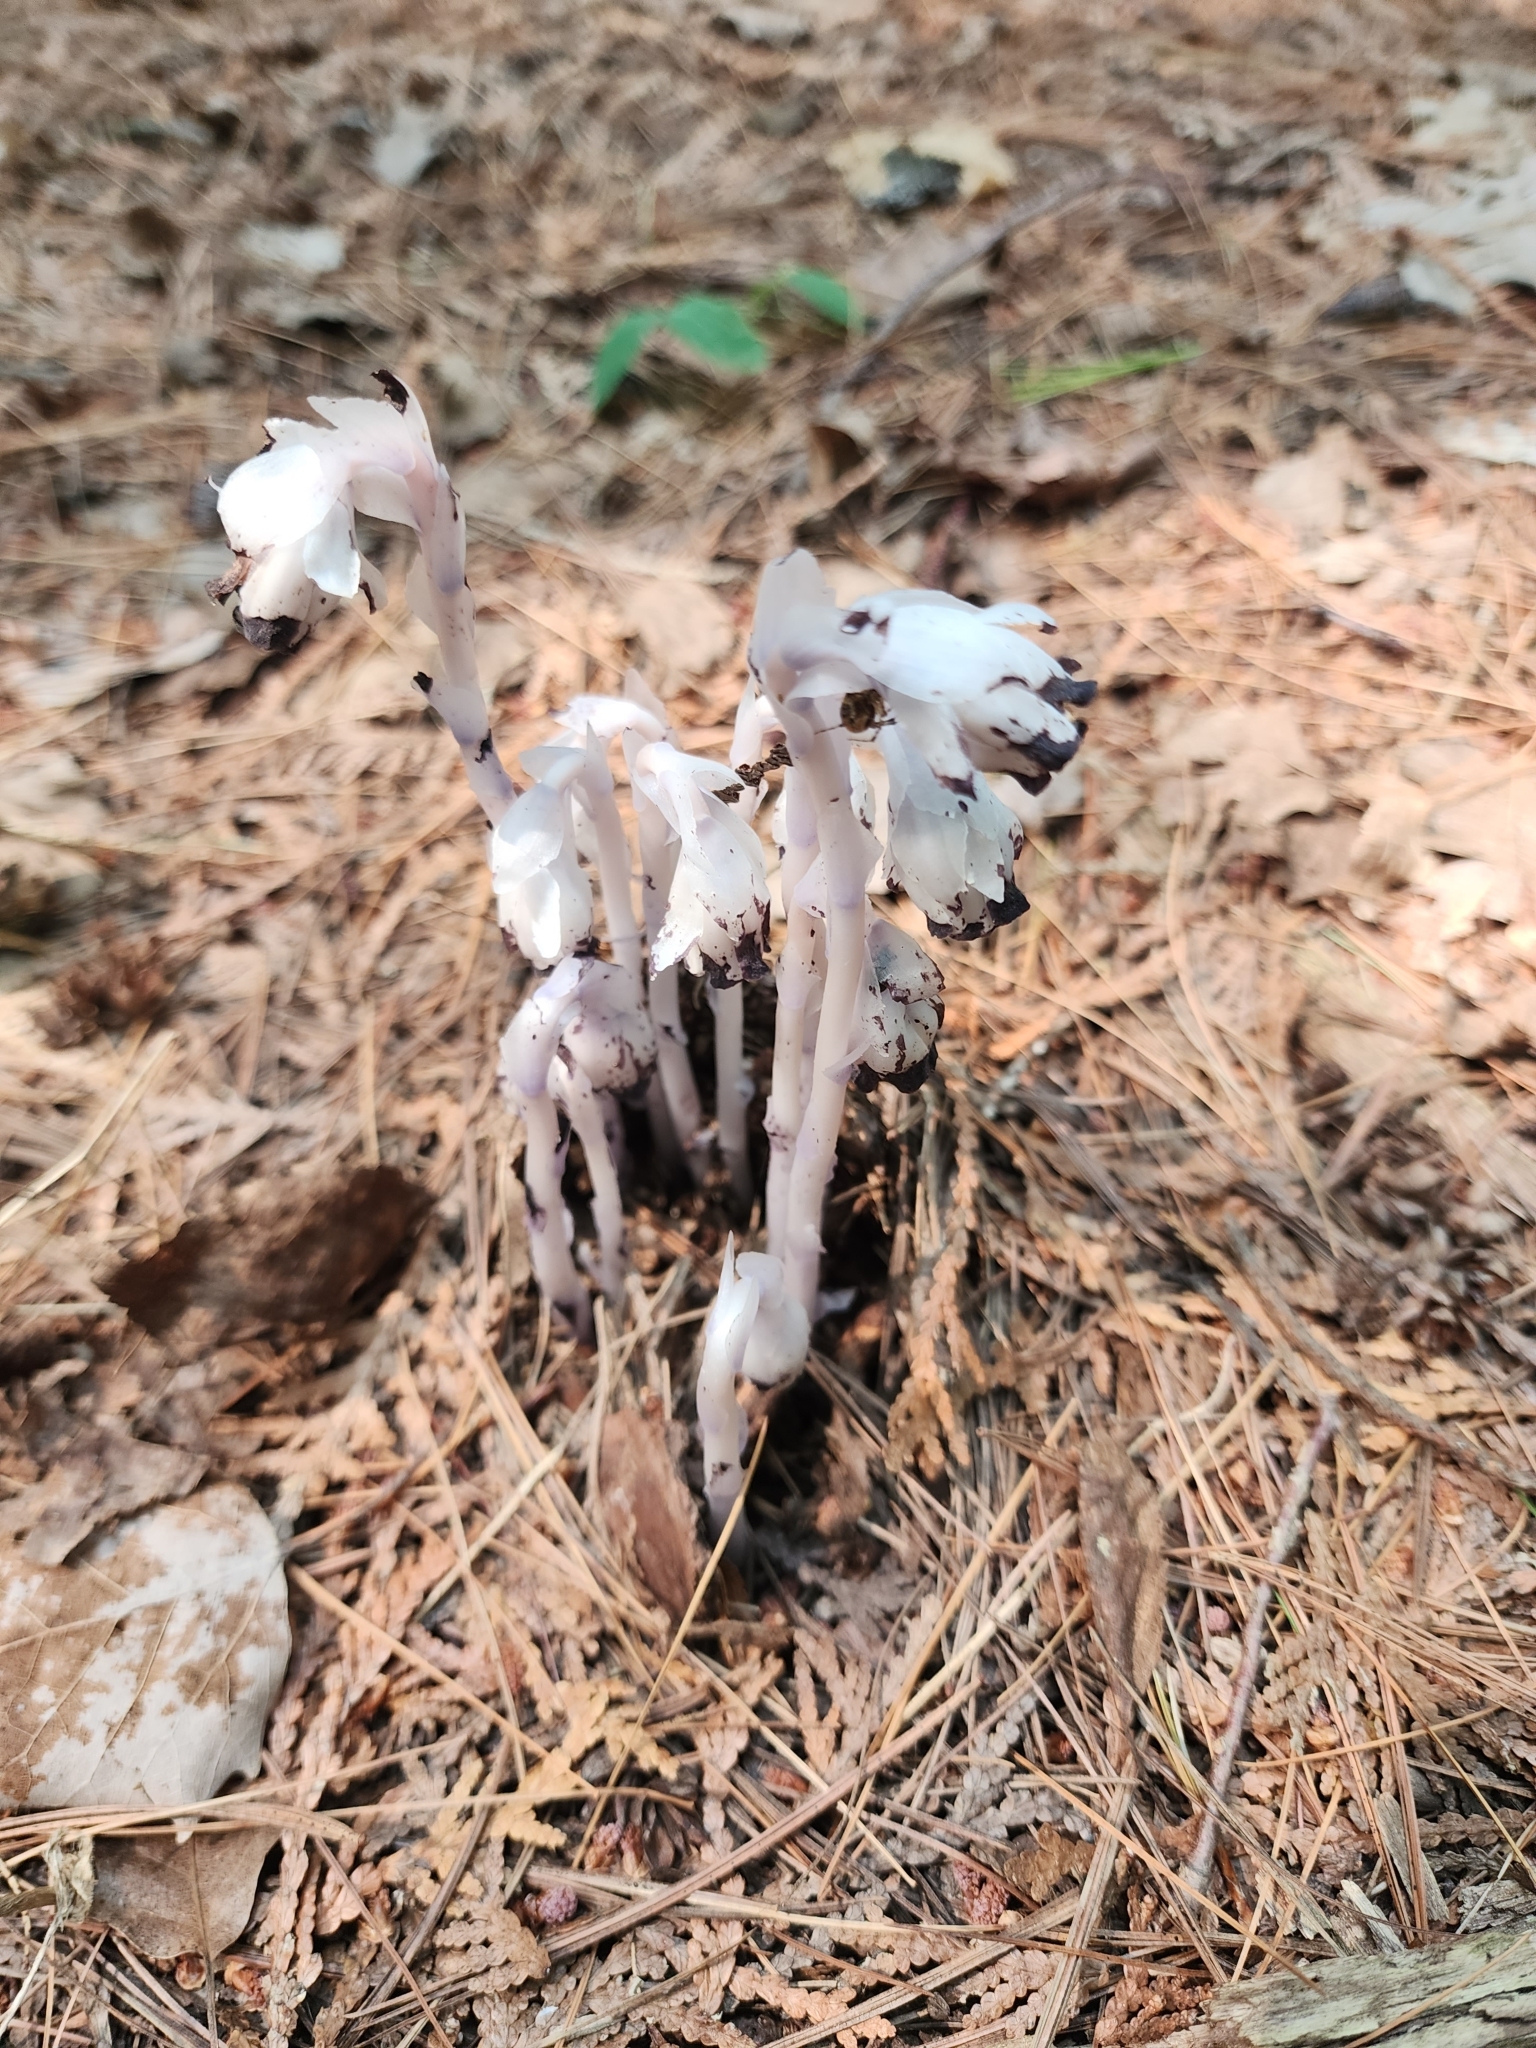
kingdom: Plantae
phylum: Tracheophyta
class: Magnoliopsida
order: Ericales
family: Ericaceae
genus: Monotropa
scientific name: Monotropa uniflora
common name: Convulsion root
